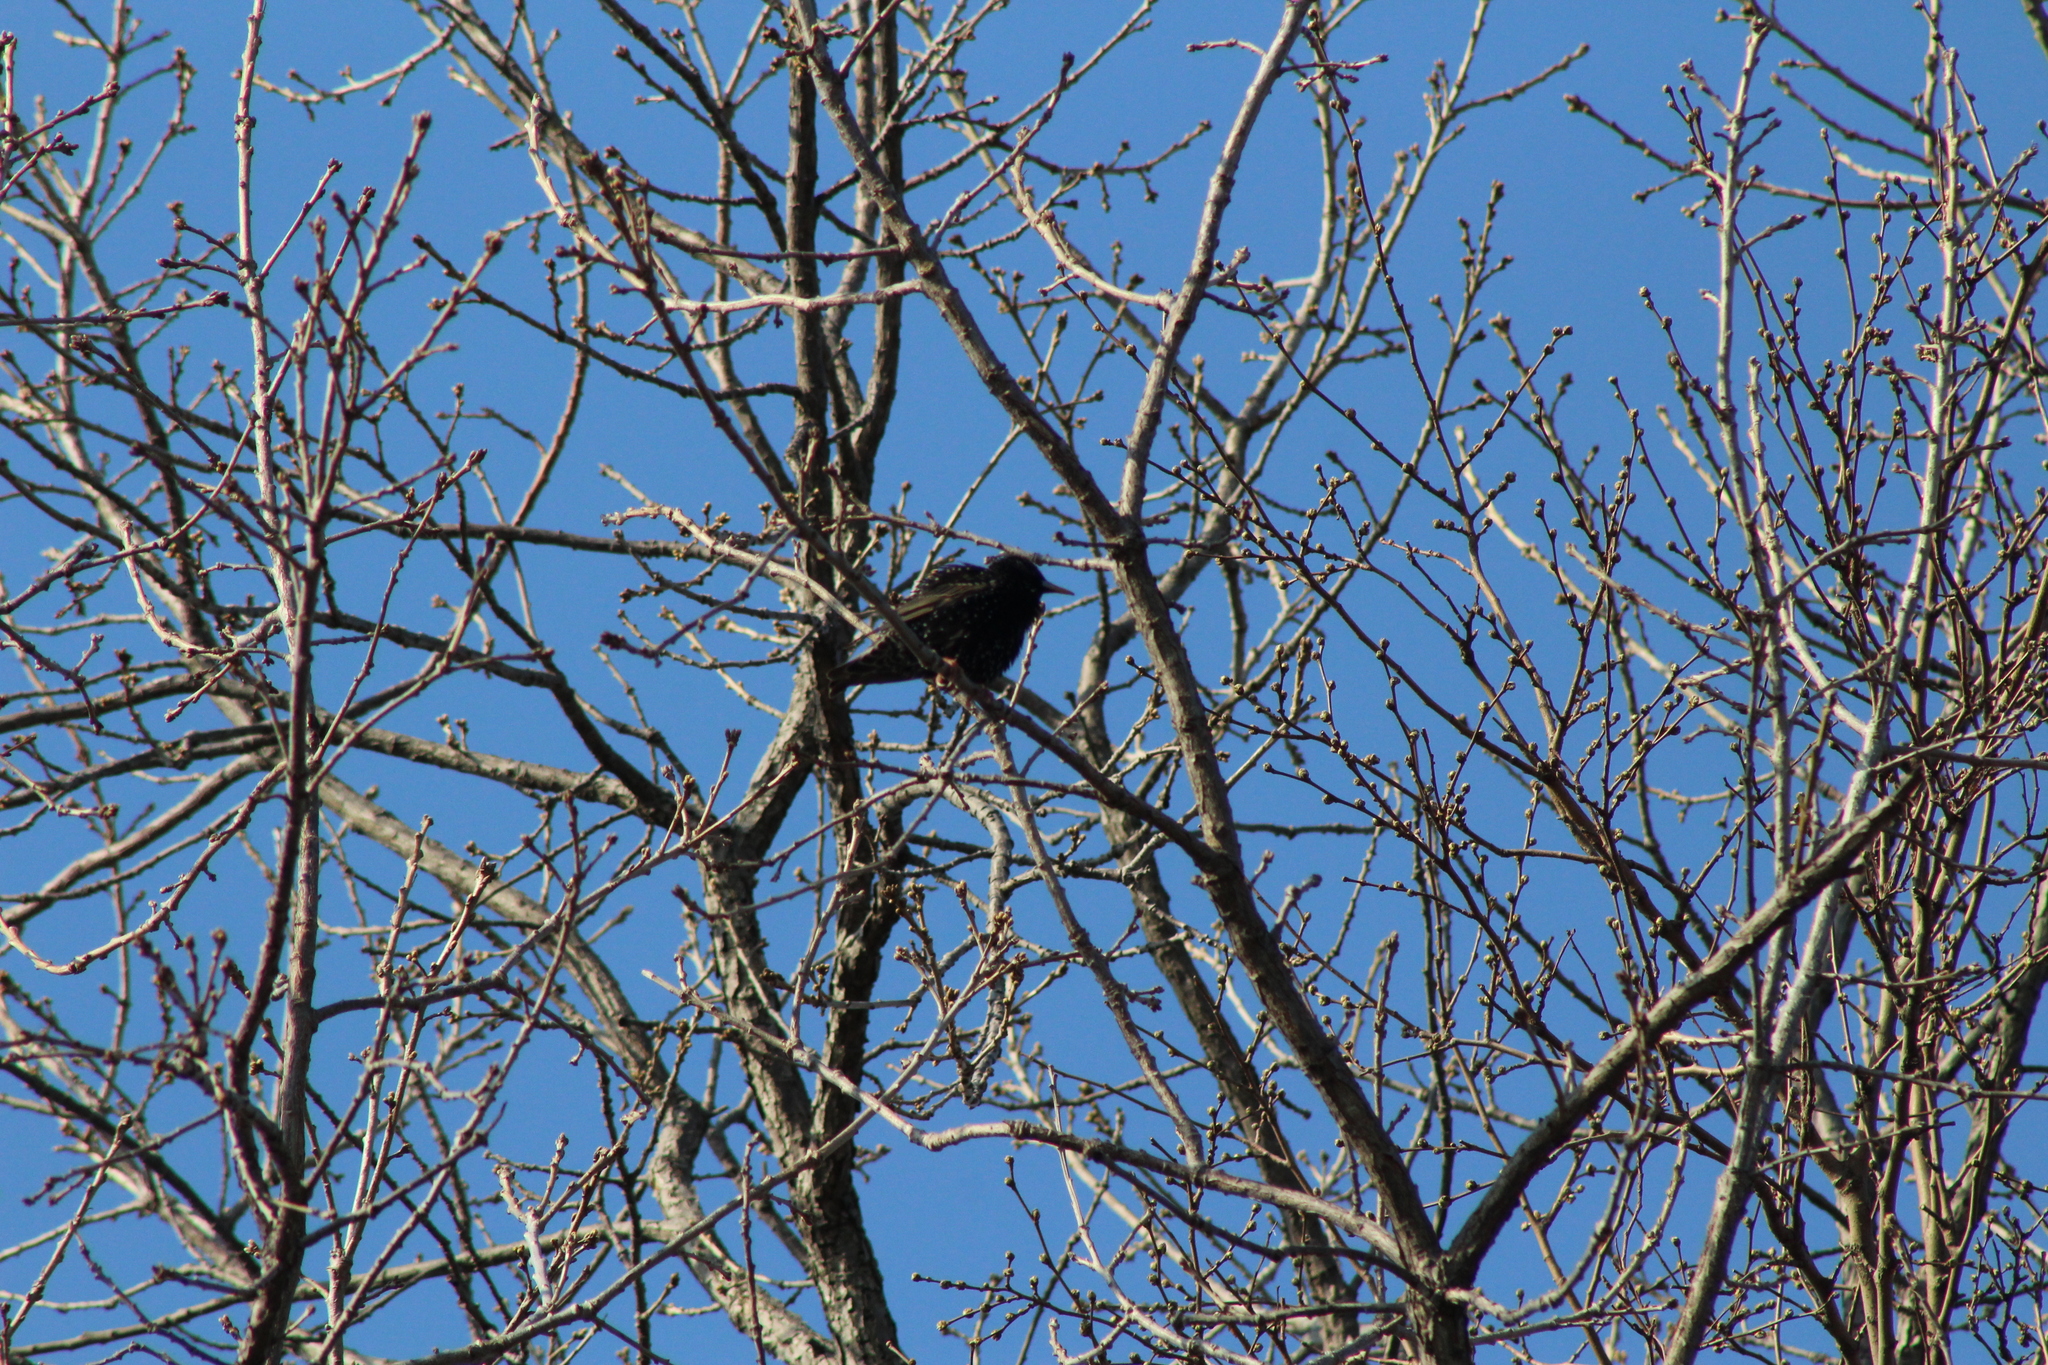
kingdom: Animalia
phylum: Chordata
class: Aves
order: Passeriformes
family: Sturnidae
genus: Sturnus
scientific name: Sturnus vulgaris
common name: Common starling
